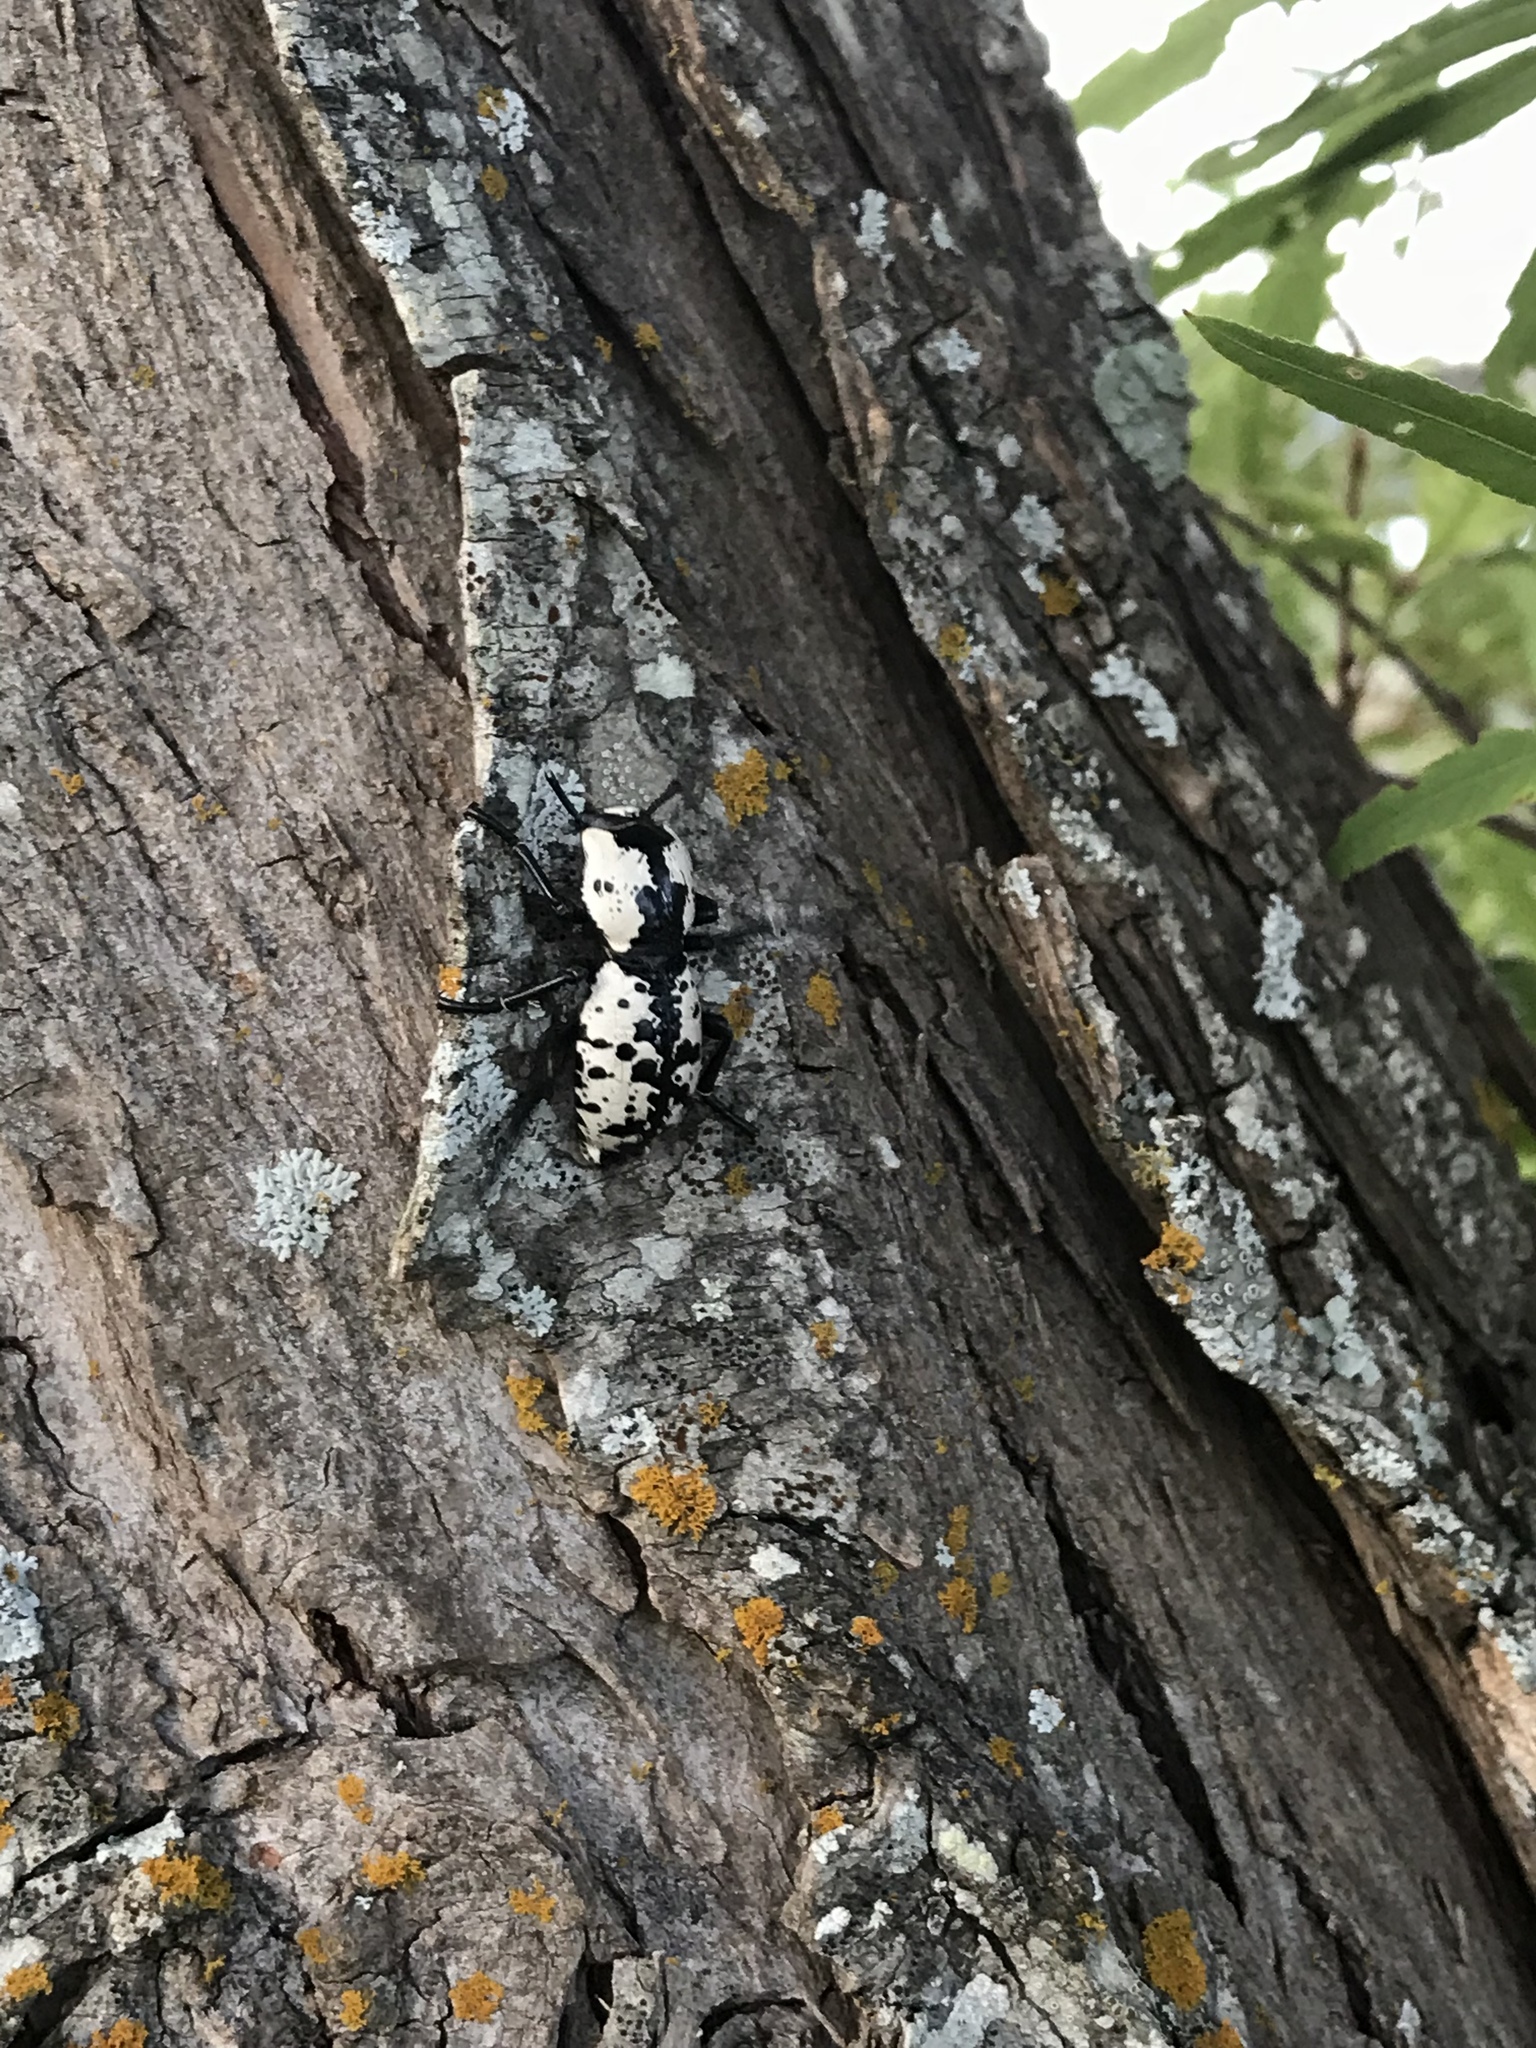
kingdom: Animalia
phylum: Arthropoda
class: Insecta
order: Coleoptera
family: Zopheridae
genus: Zopherus
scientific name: Zopherus nodulosus
